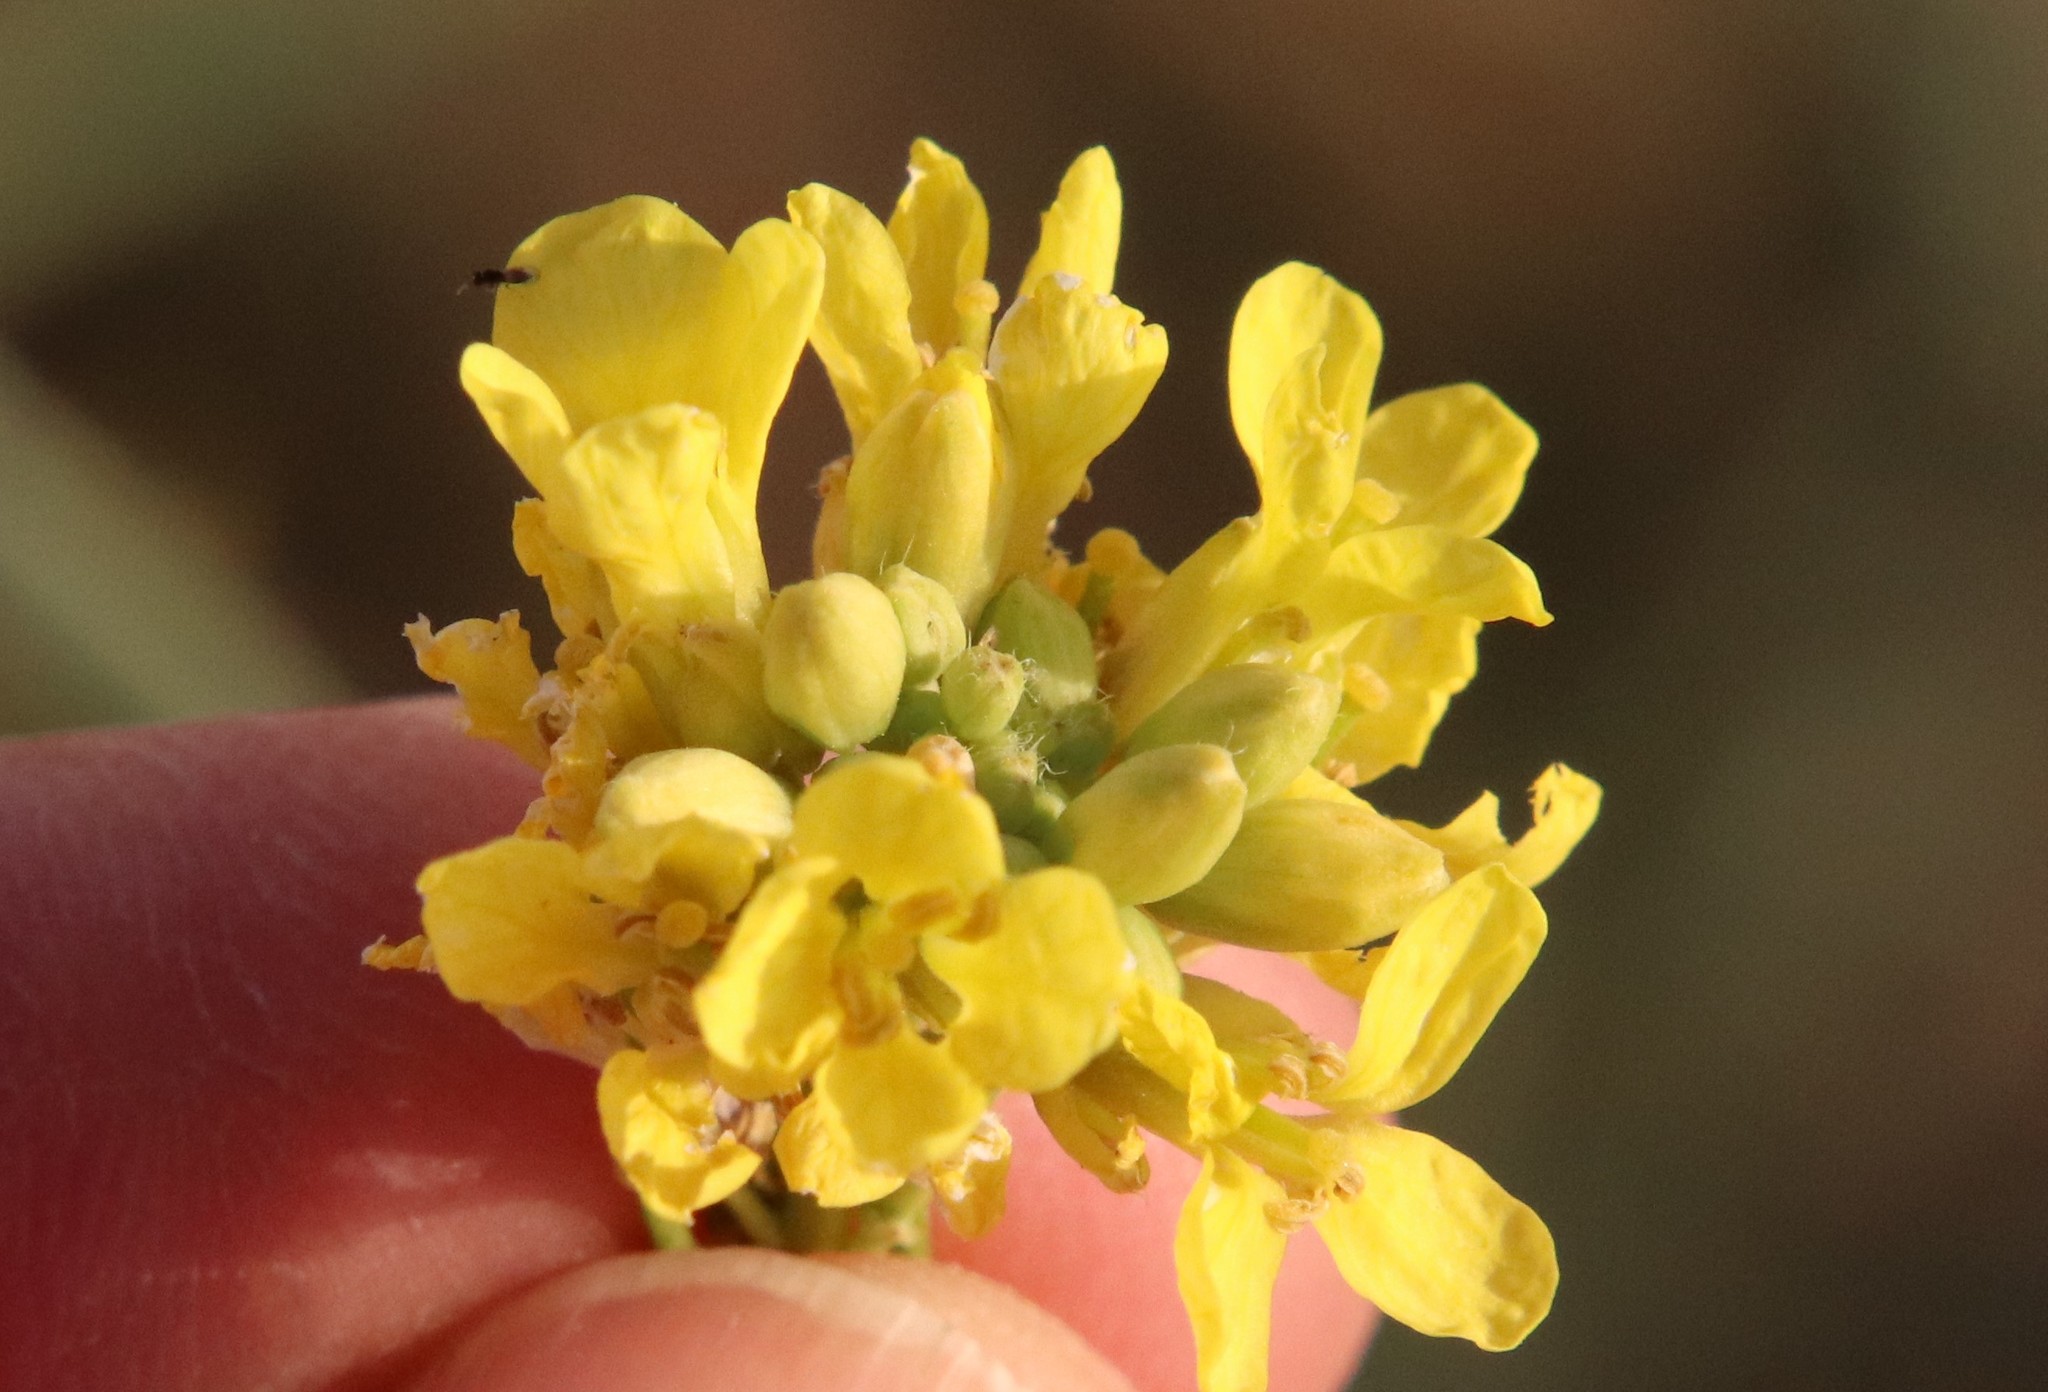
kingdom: Plantae
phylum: Tracheophyta
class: Magnoliopsida
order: Brassicales
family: Brassicaceae
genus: Hirschfeldia
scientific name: Hirschfeldia incana
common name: Hoary mustard
